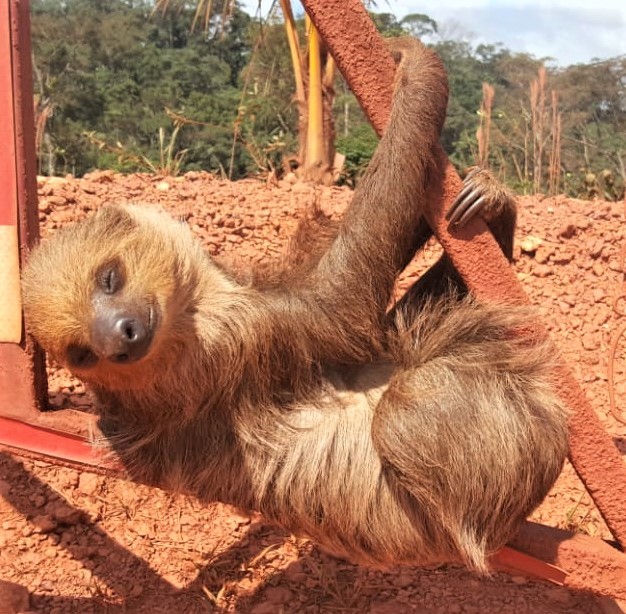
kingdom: Animalia
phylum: Chordata
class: Mammalia
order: Pilosa
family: Megalonychidae
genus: Choloepus
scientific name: Choloepus didactylus
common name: Southern two-toed sloth
